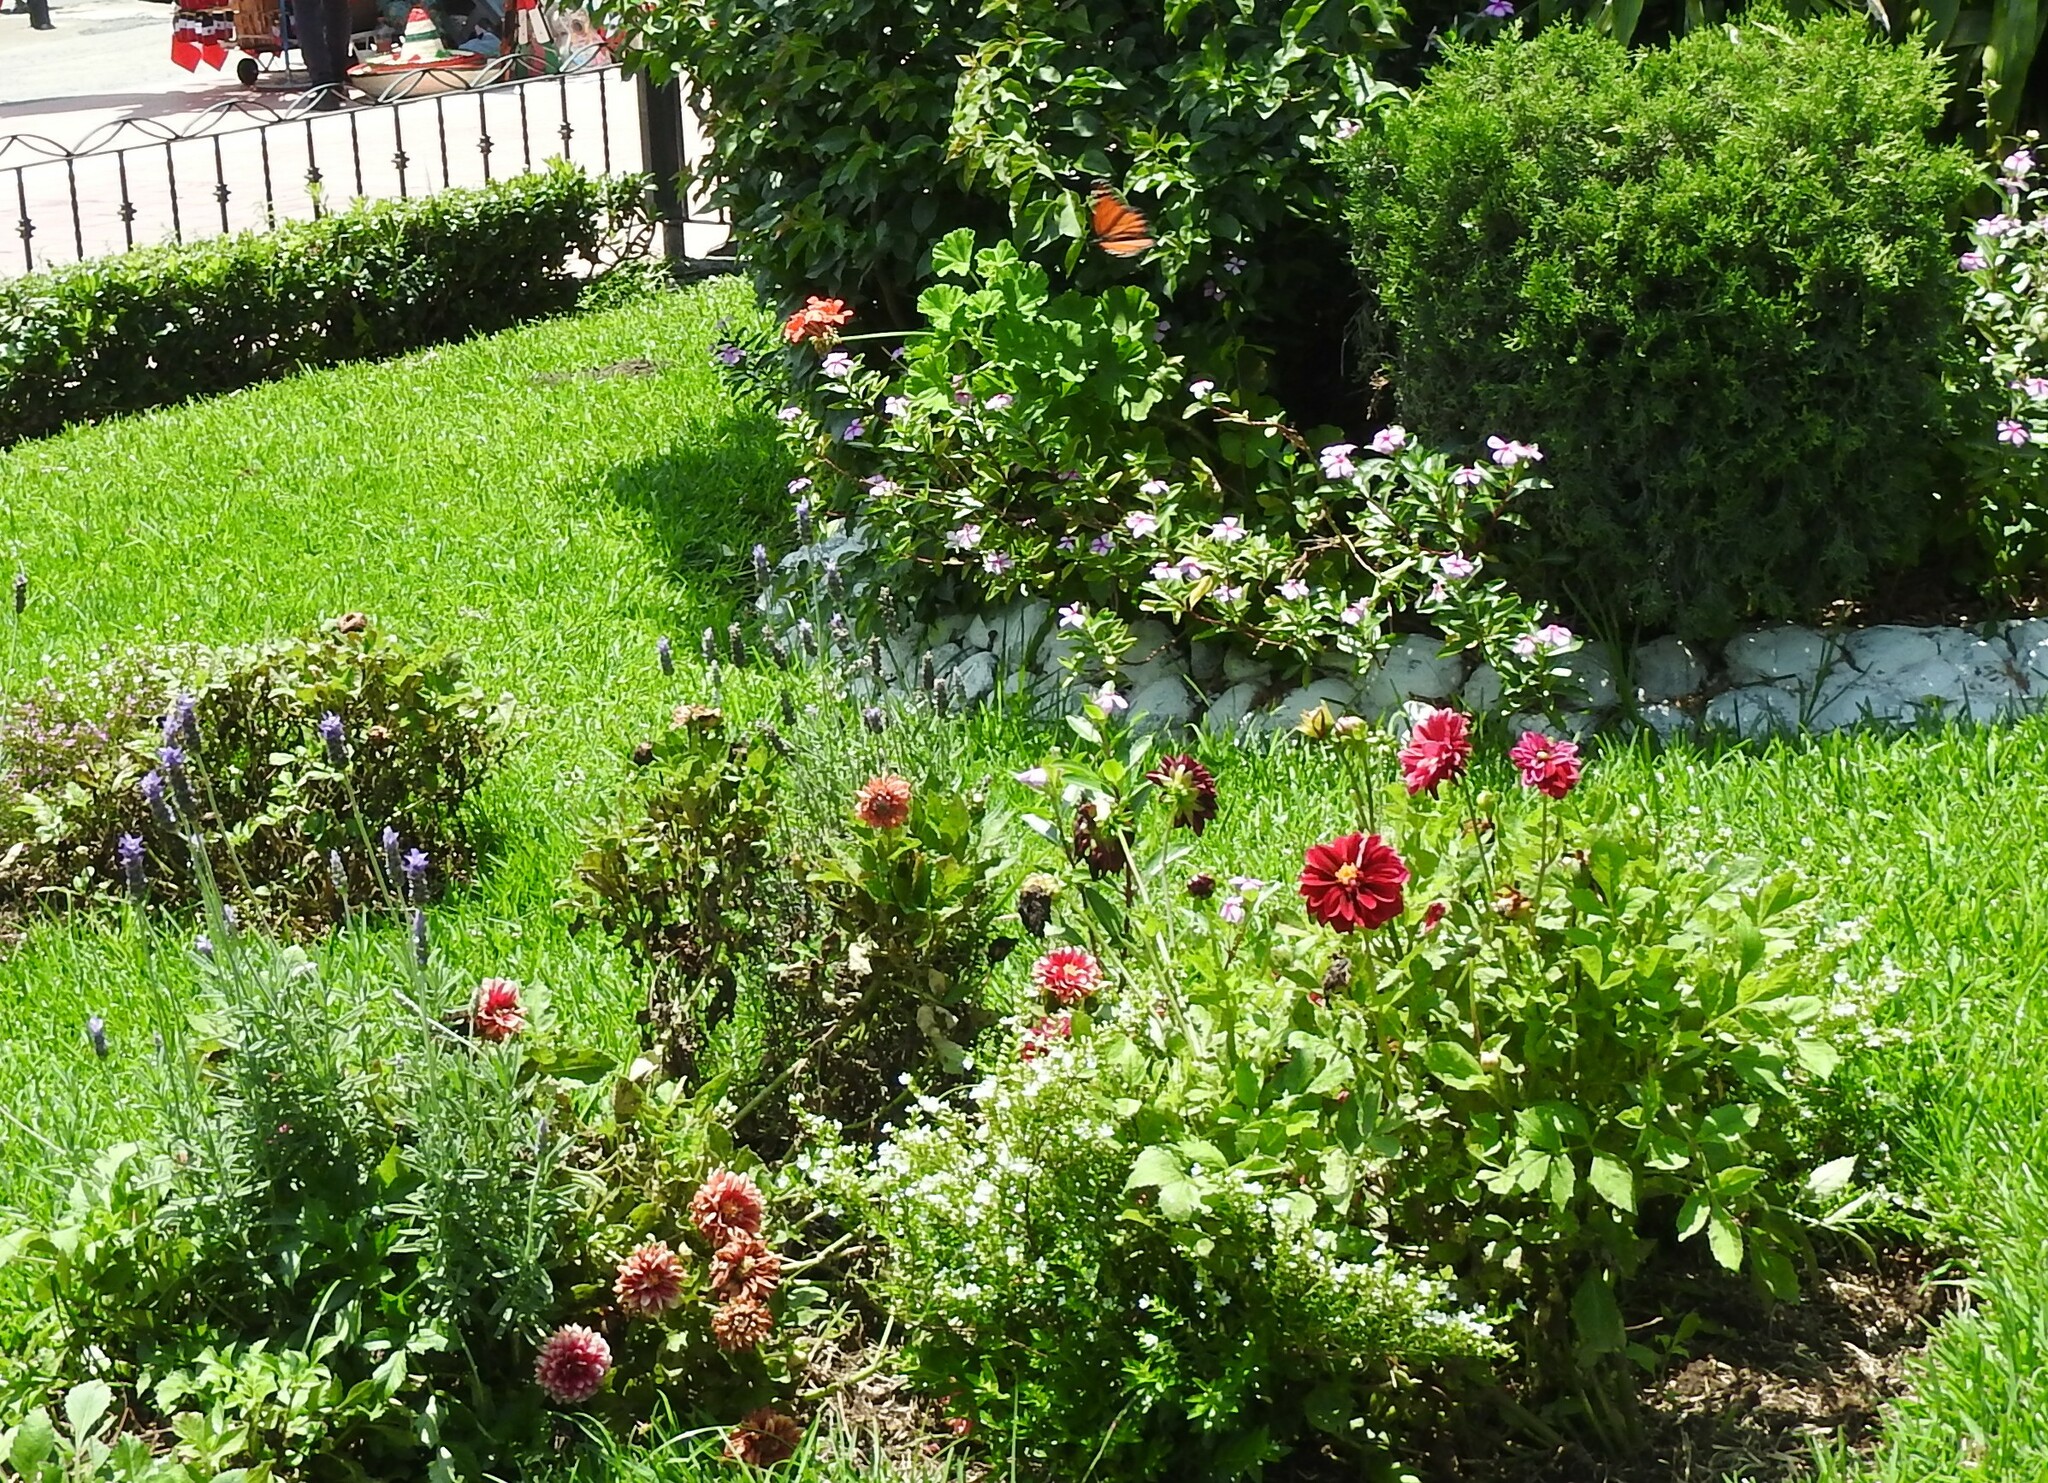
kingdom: Animalia
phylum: Arthropoda
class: Insecta
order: Lepidoptera
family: Nymphalidae
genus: Danaus
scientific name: Danaus plexippus
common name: Monarch
